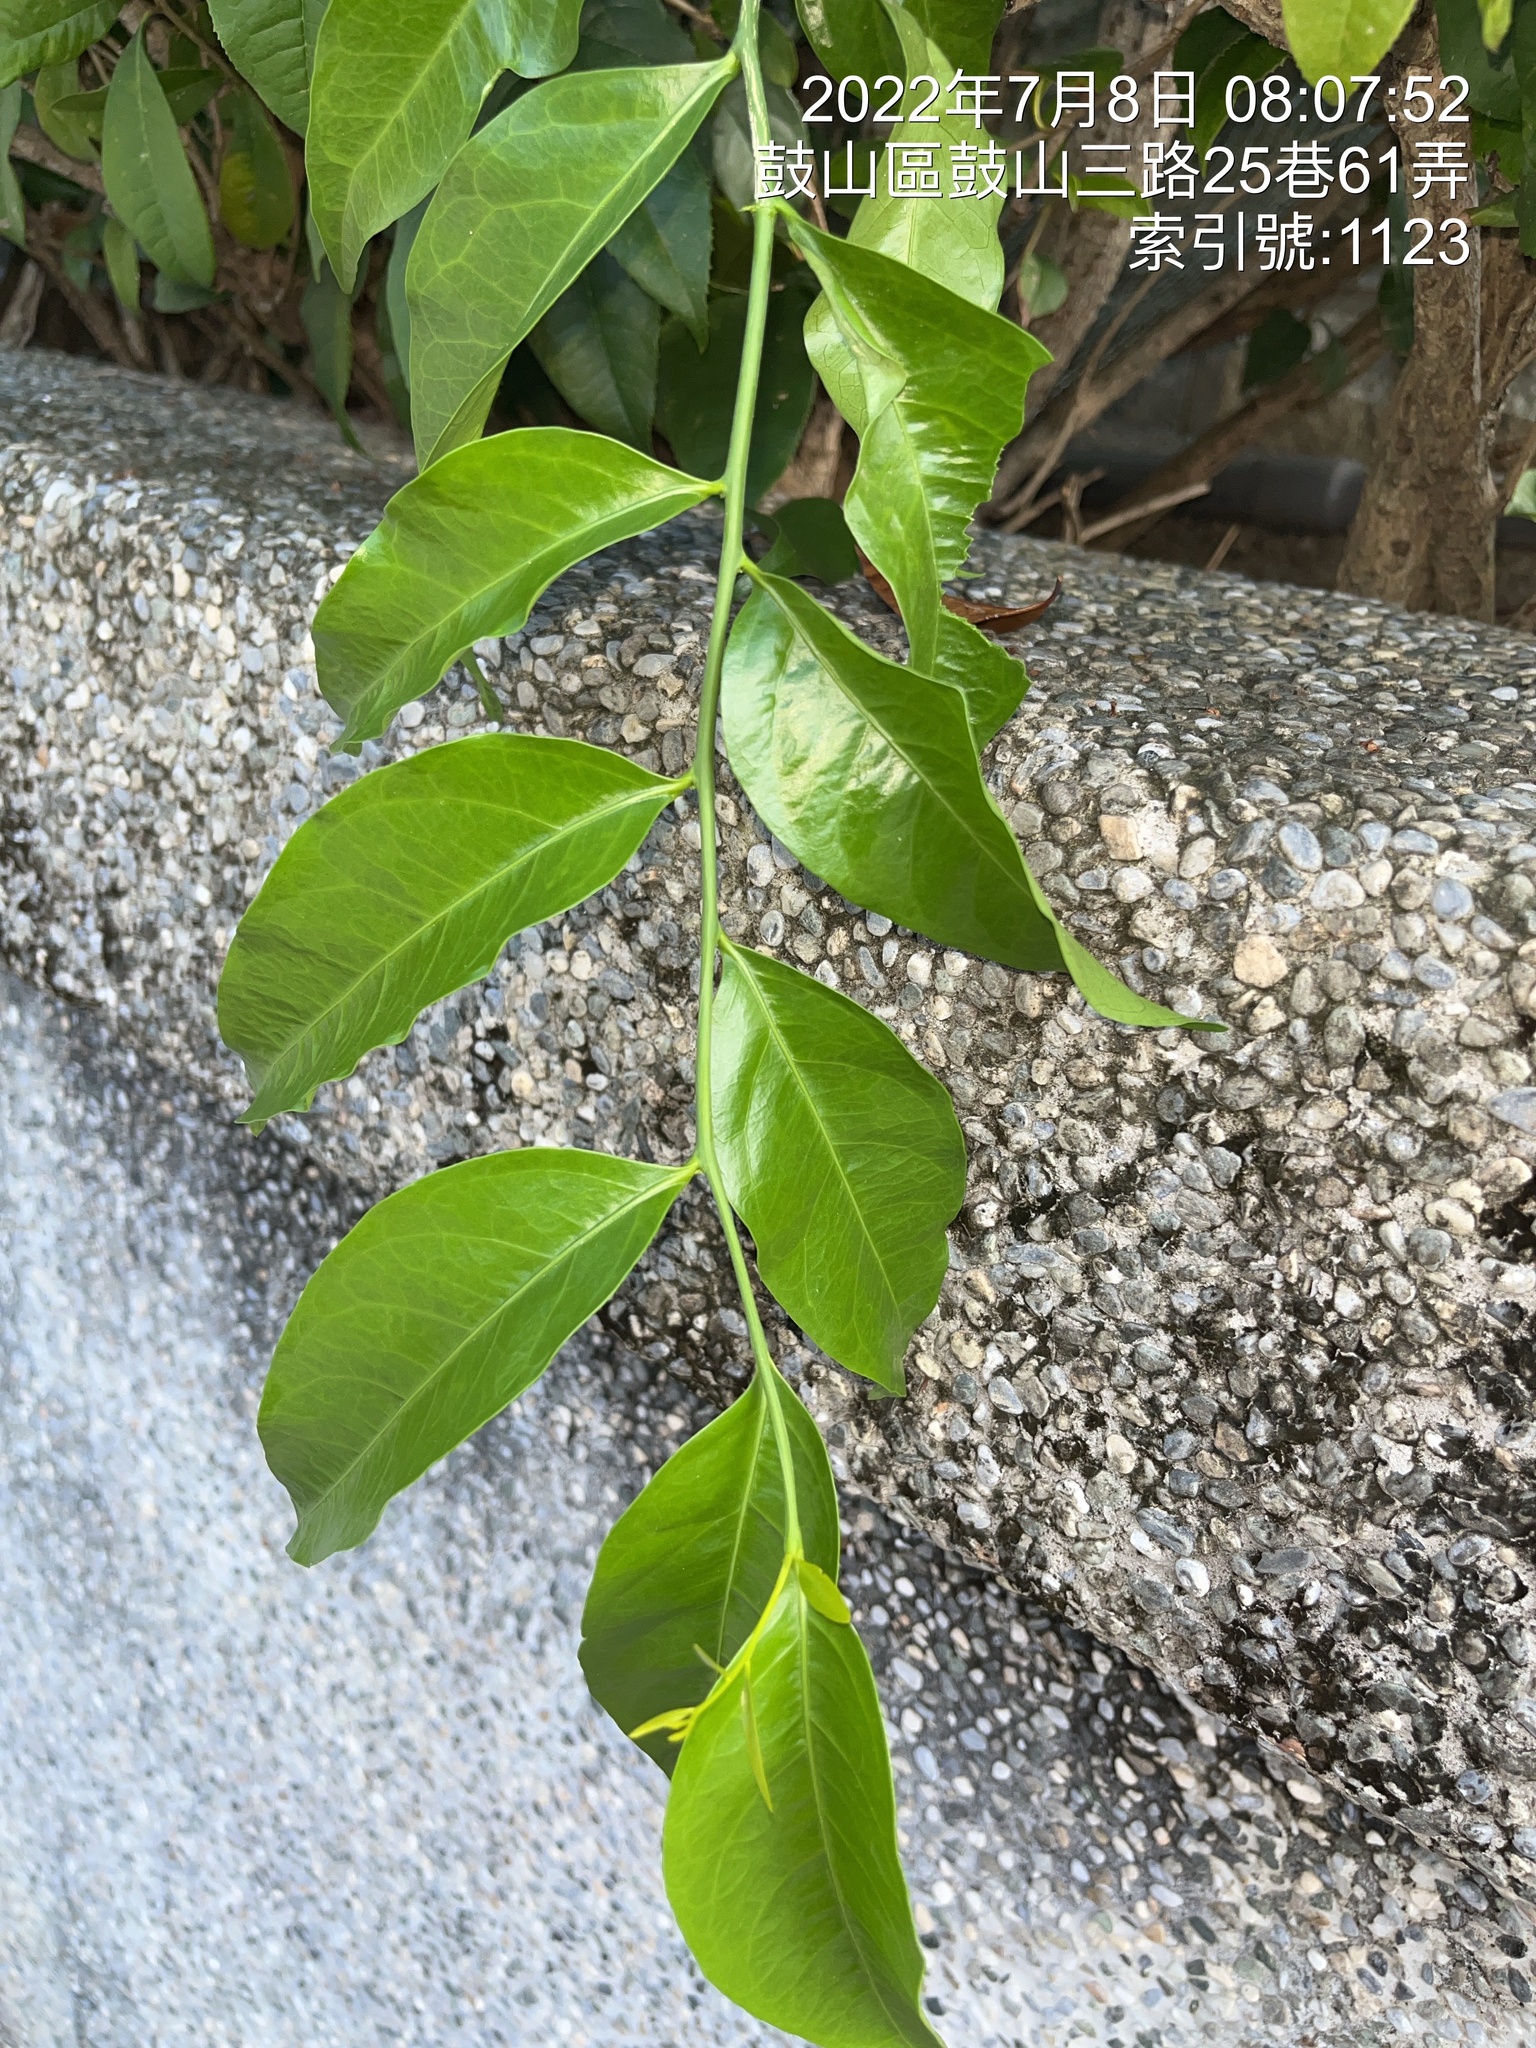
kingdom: Plantae
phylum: Tracheophyta
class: Magnoliopsida
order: Santalales
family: Opiliaceae
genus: Champereia
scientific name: Champereia manillana
